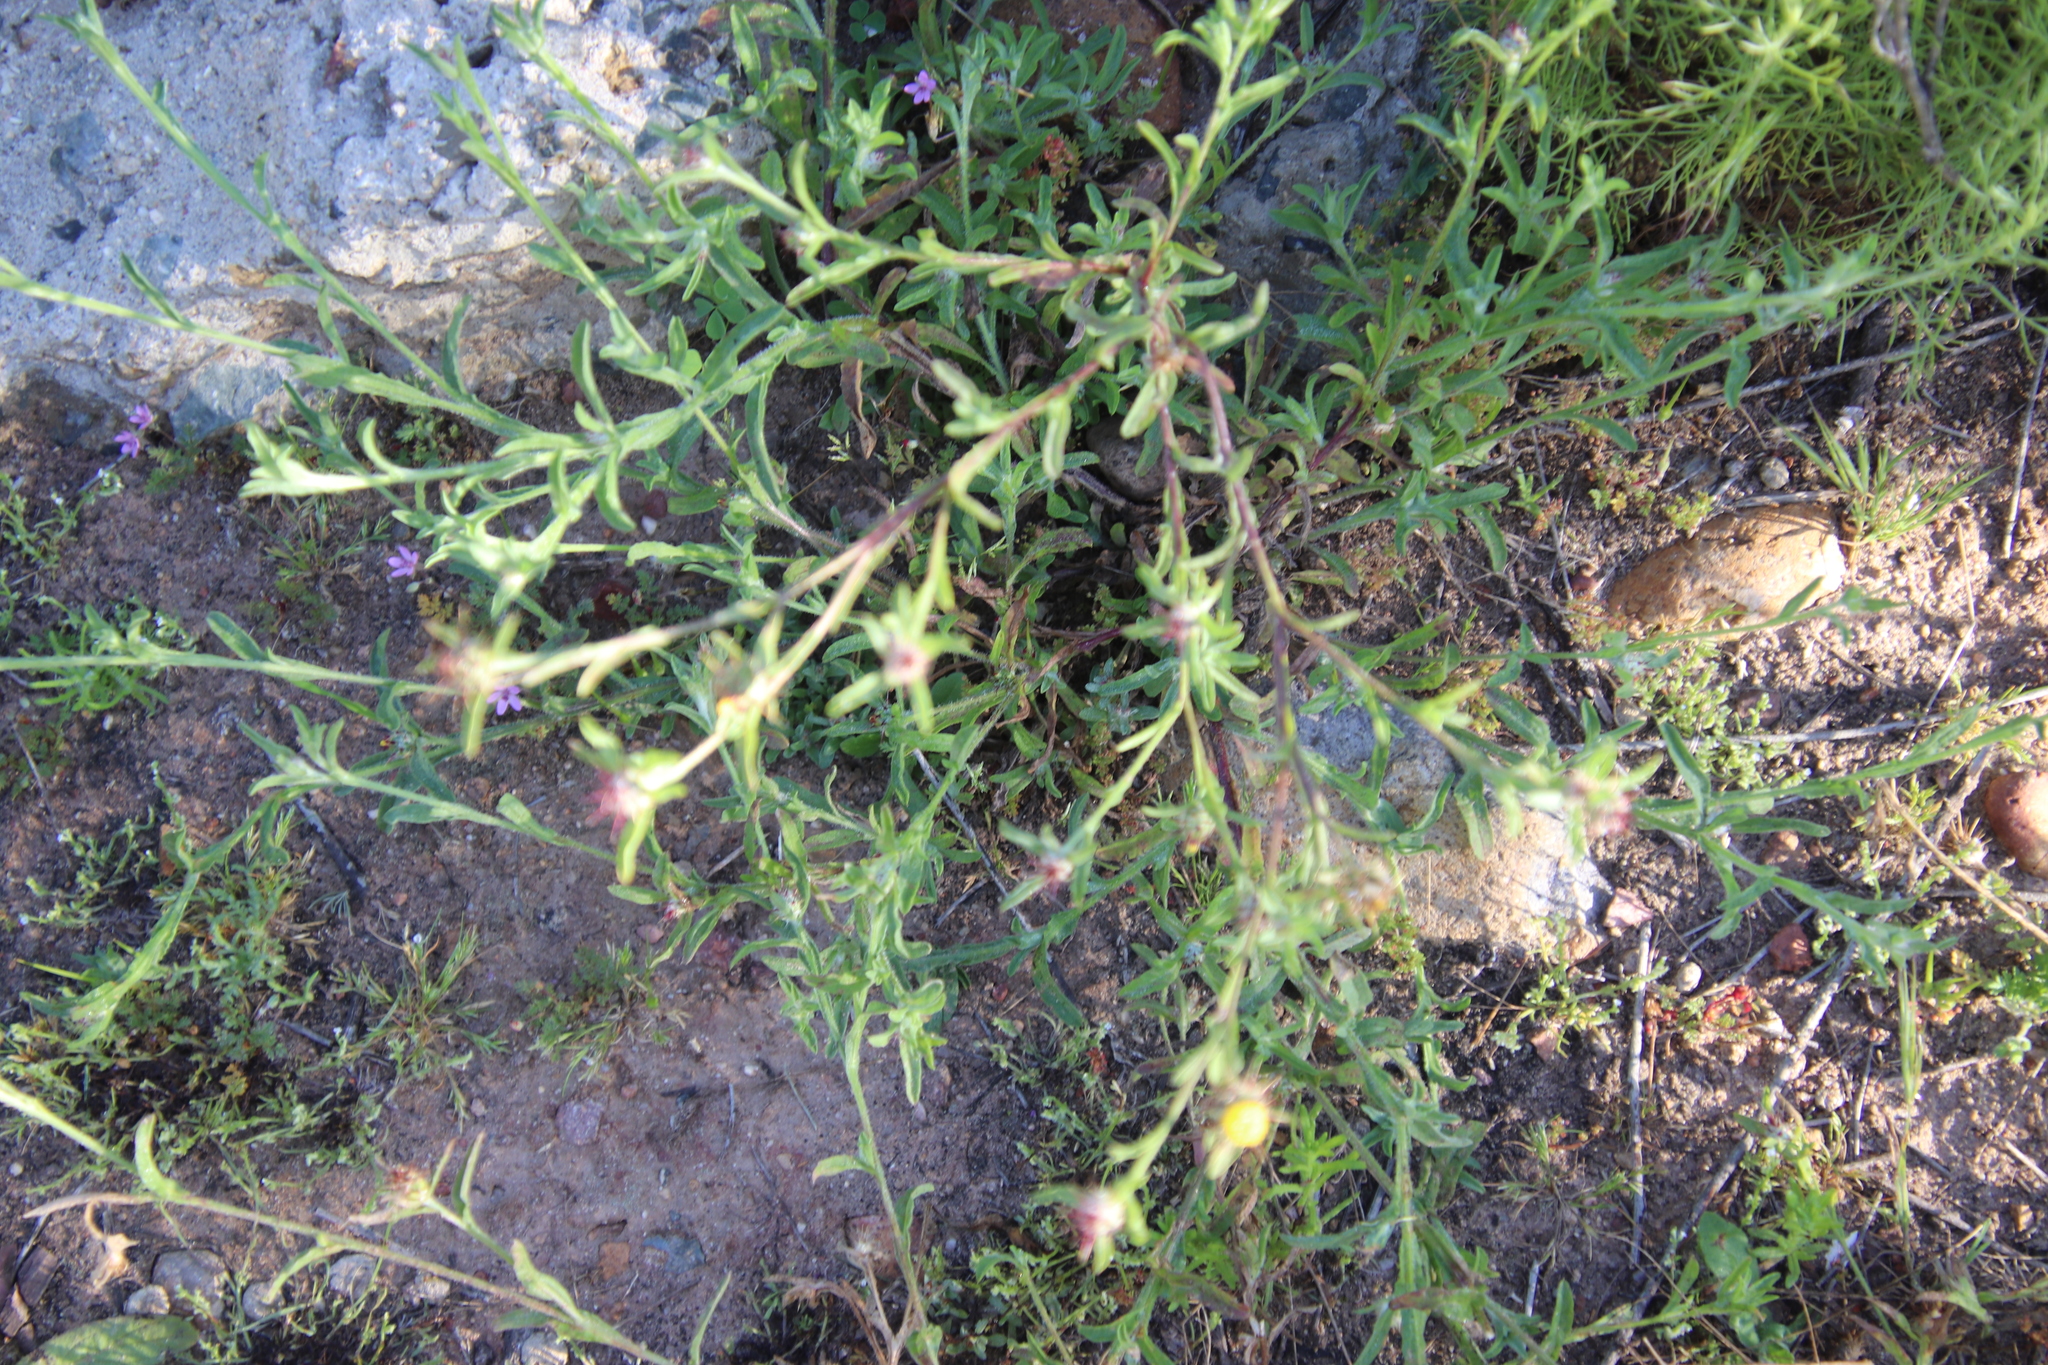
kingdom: Plantae
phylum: Tracheophyta
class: Magnoliopsida
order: Asterales
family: Asteraceae
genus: Centaurea
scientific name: Centaurea melitensis
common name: Maltese star-thistle
